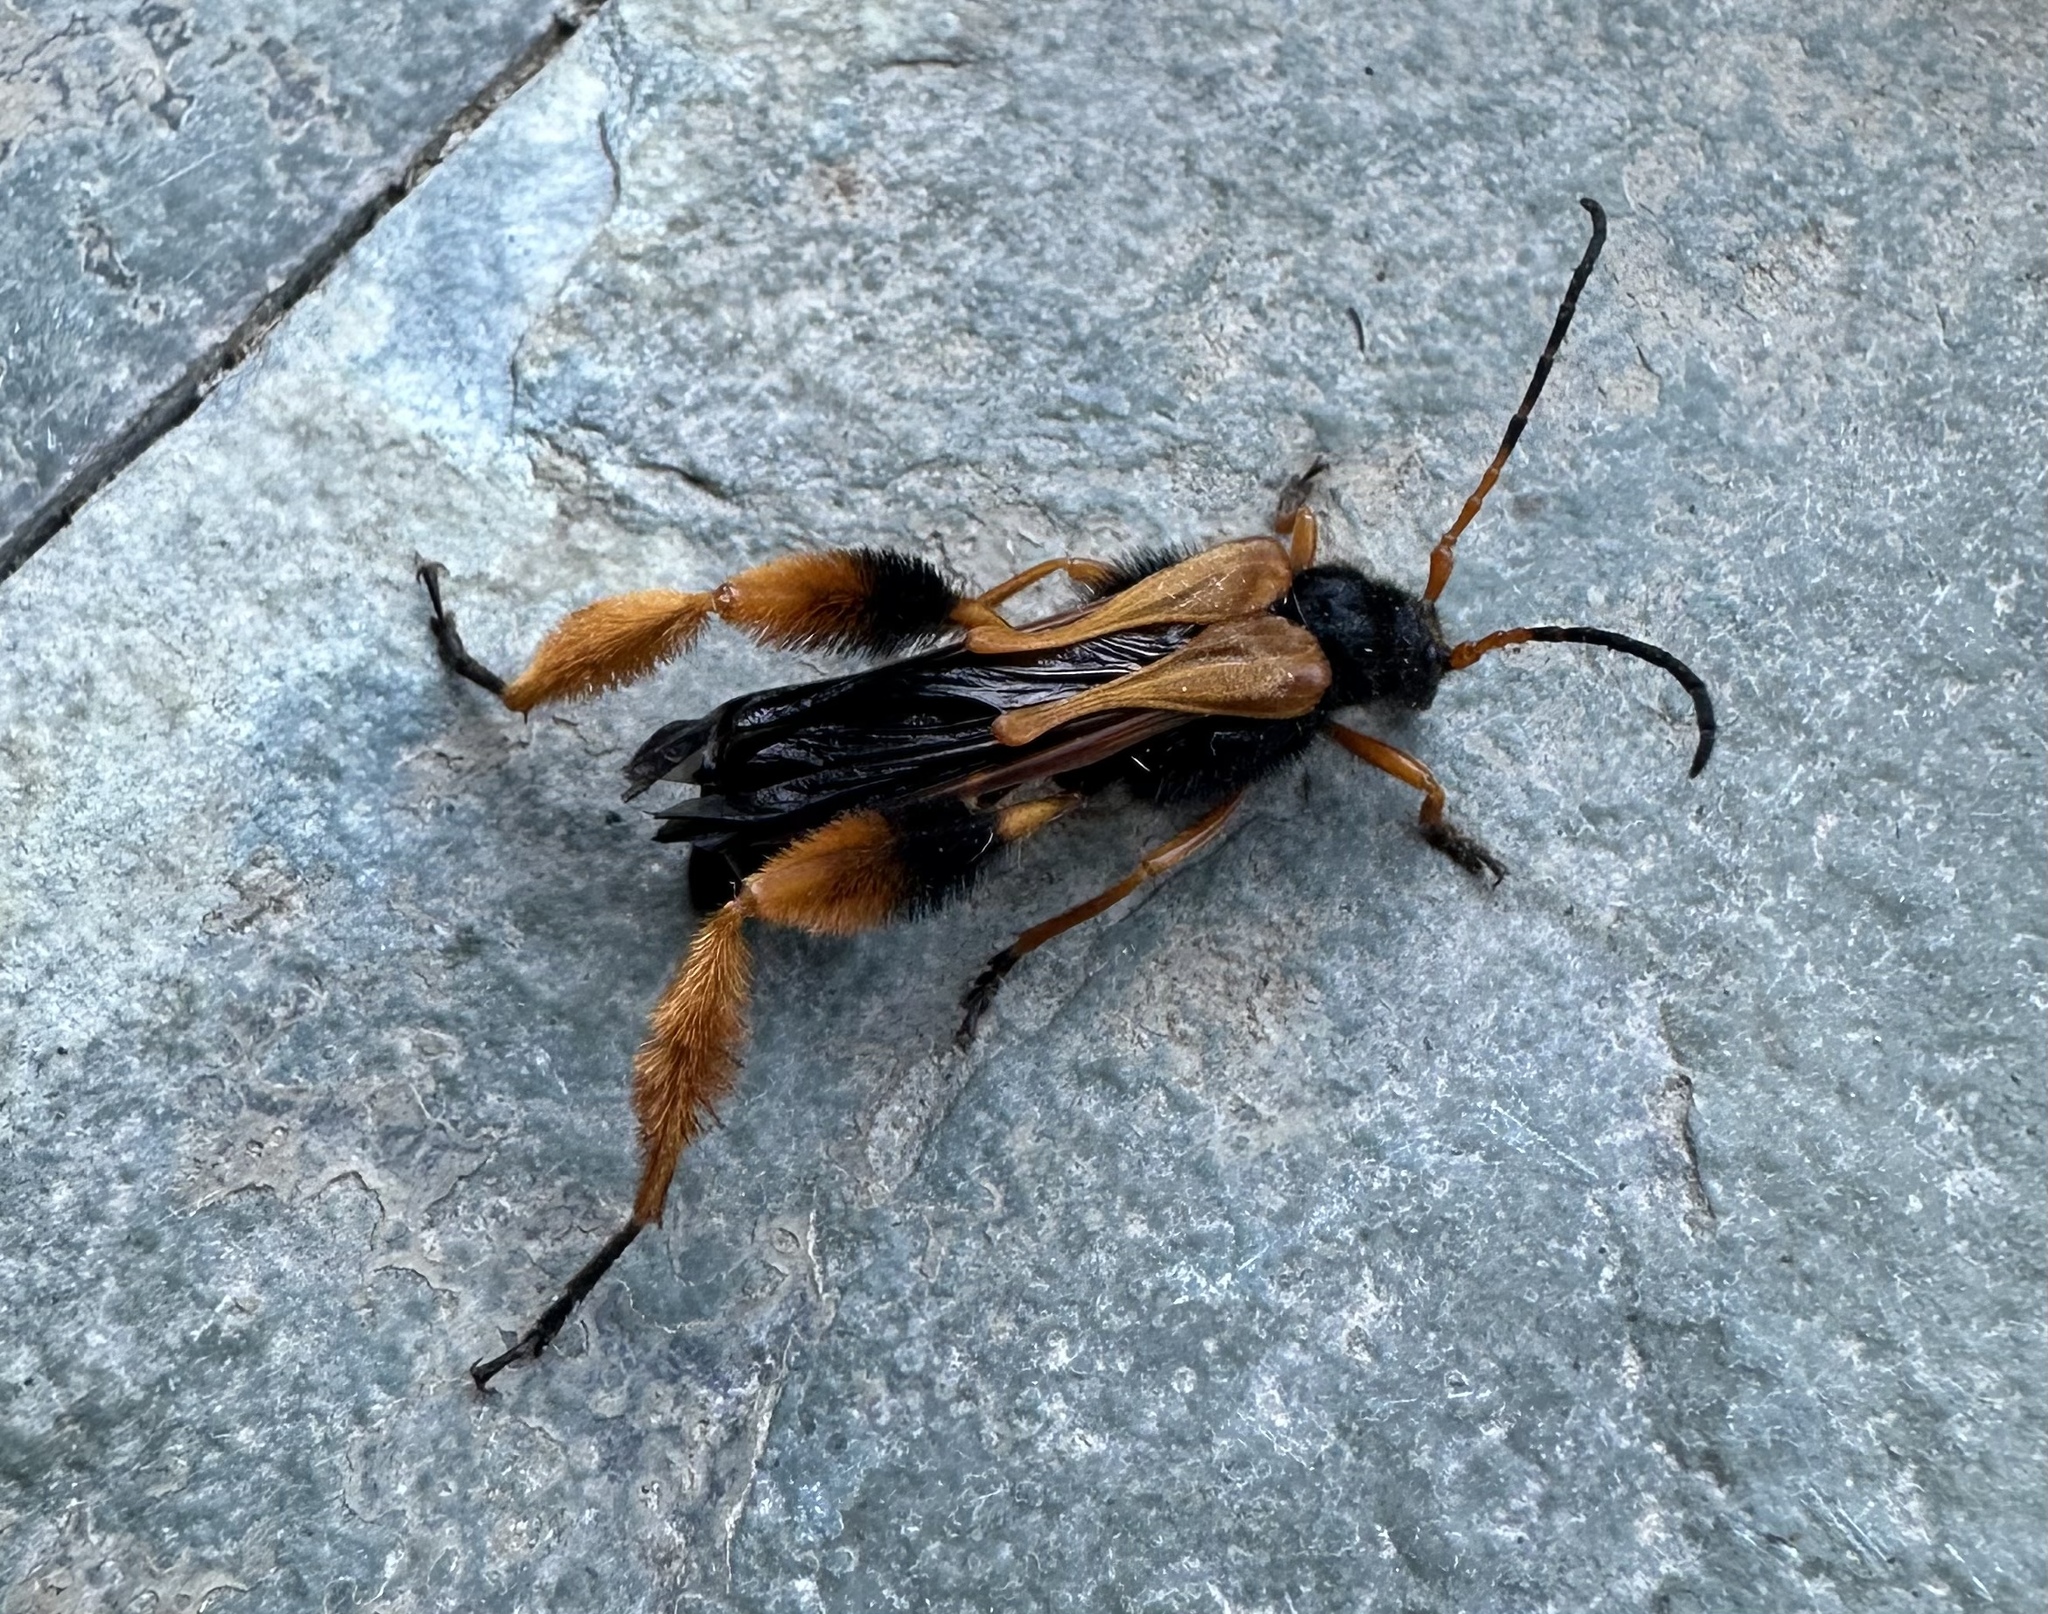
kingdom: Animalia
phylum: Arthropoda
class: Insecta
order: Coleoptera
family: Cerambycidae
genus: Callisphyris
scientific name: Callisphyris macropus
